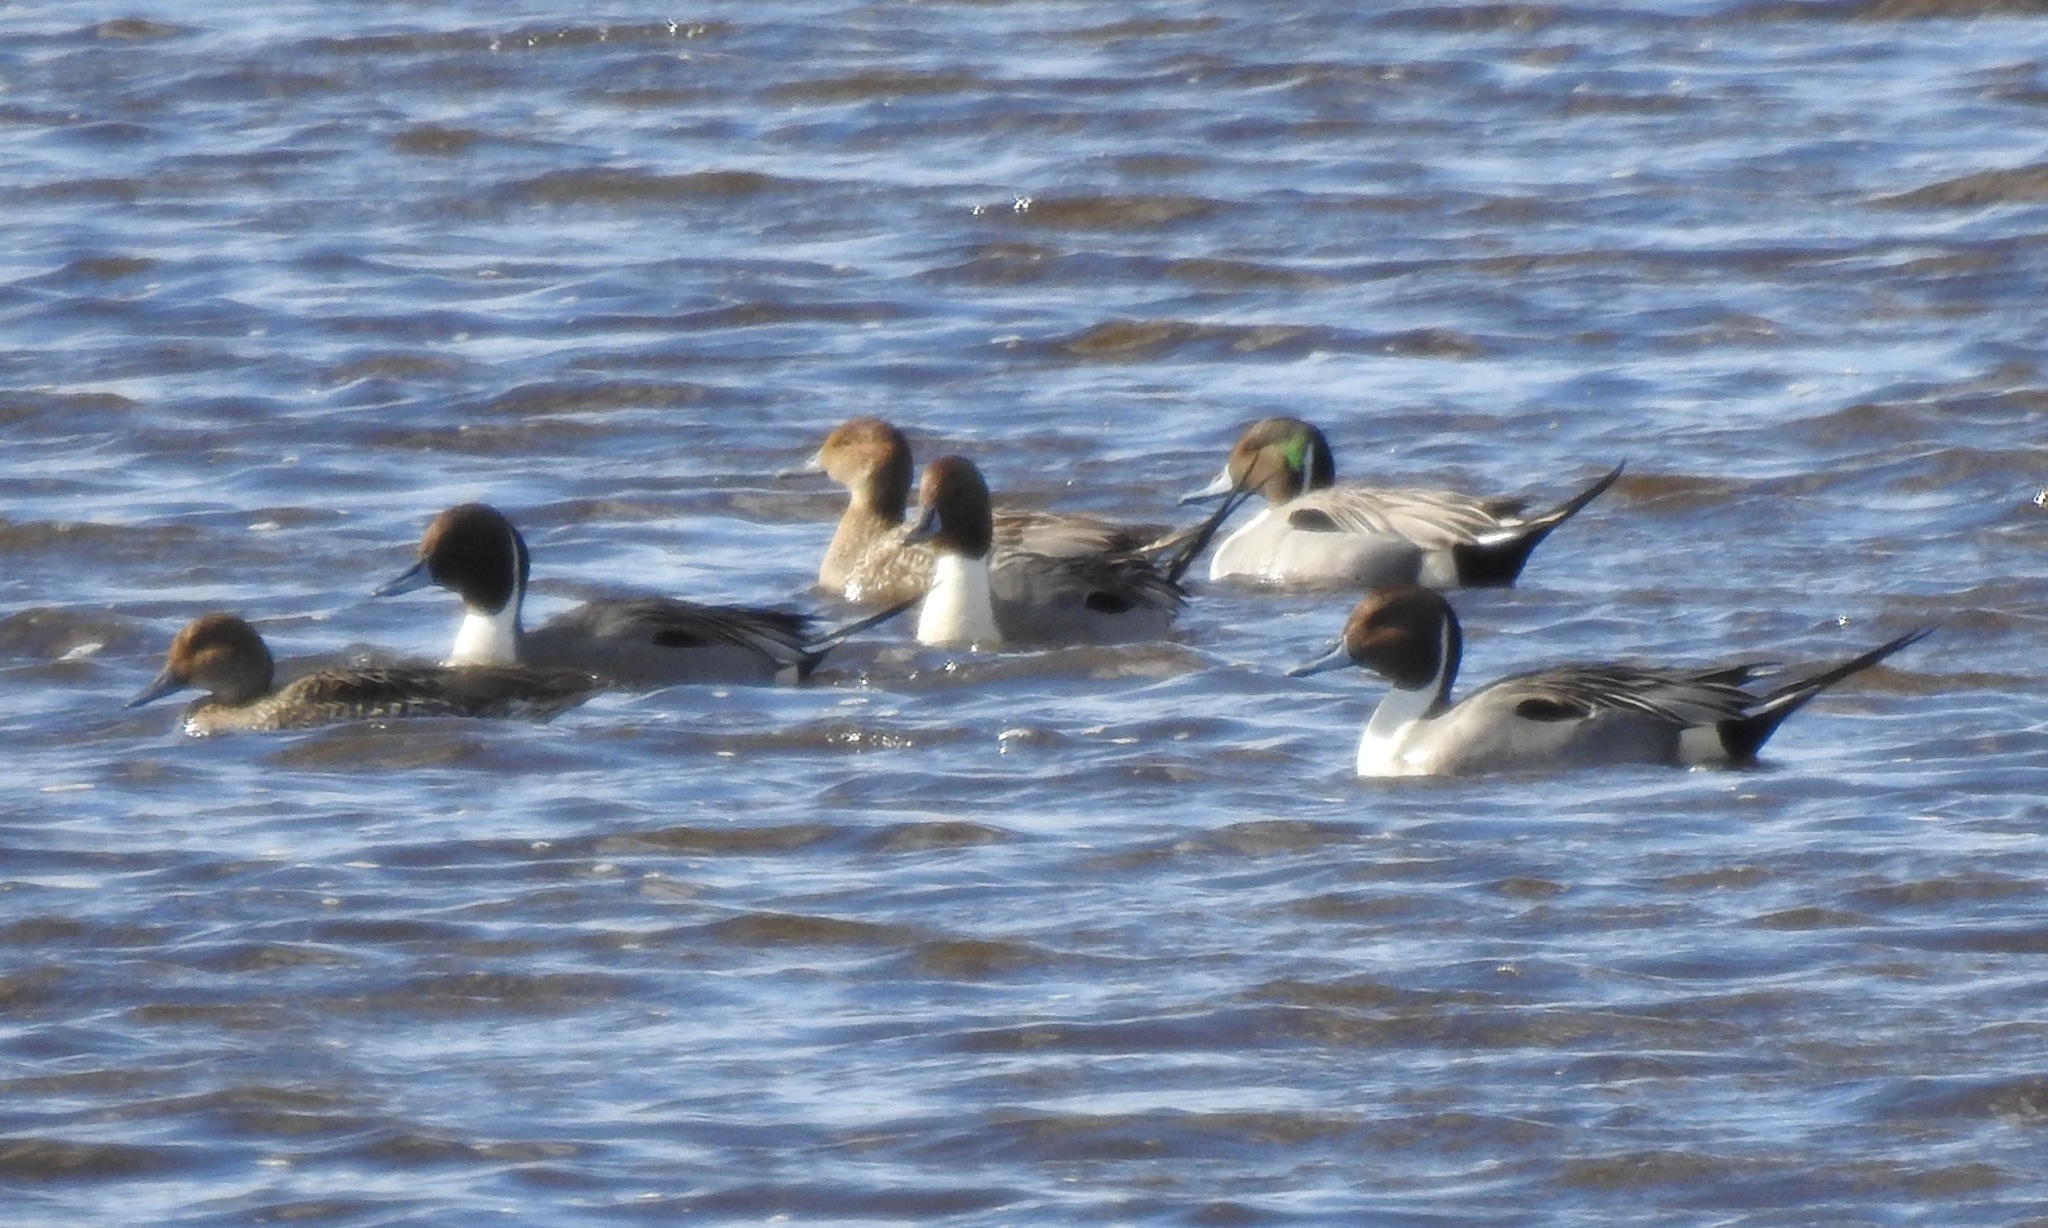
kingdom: Animalia
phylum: Chordata
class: Aves
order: Anseriformes
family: Anatidae
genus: Anas
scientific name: Anas acuta
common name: Northern pintail
